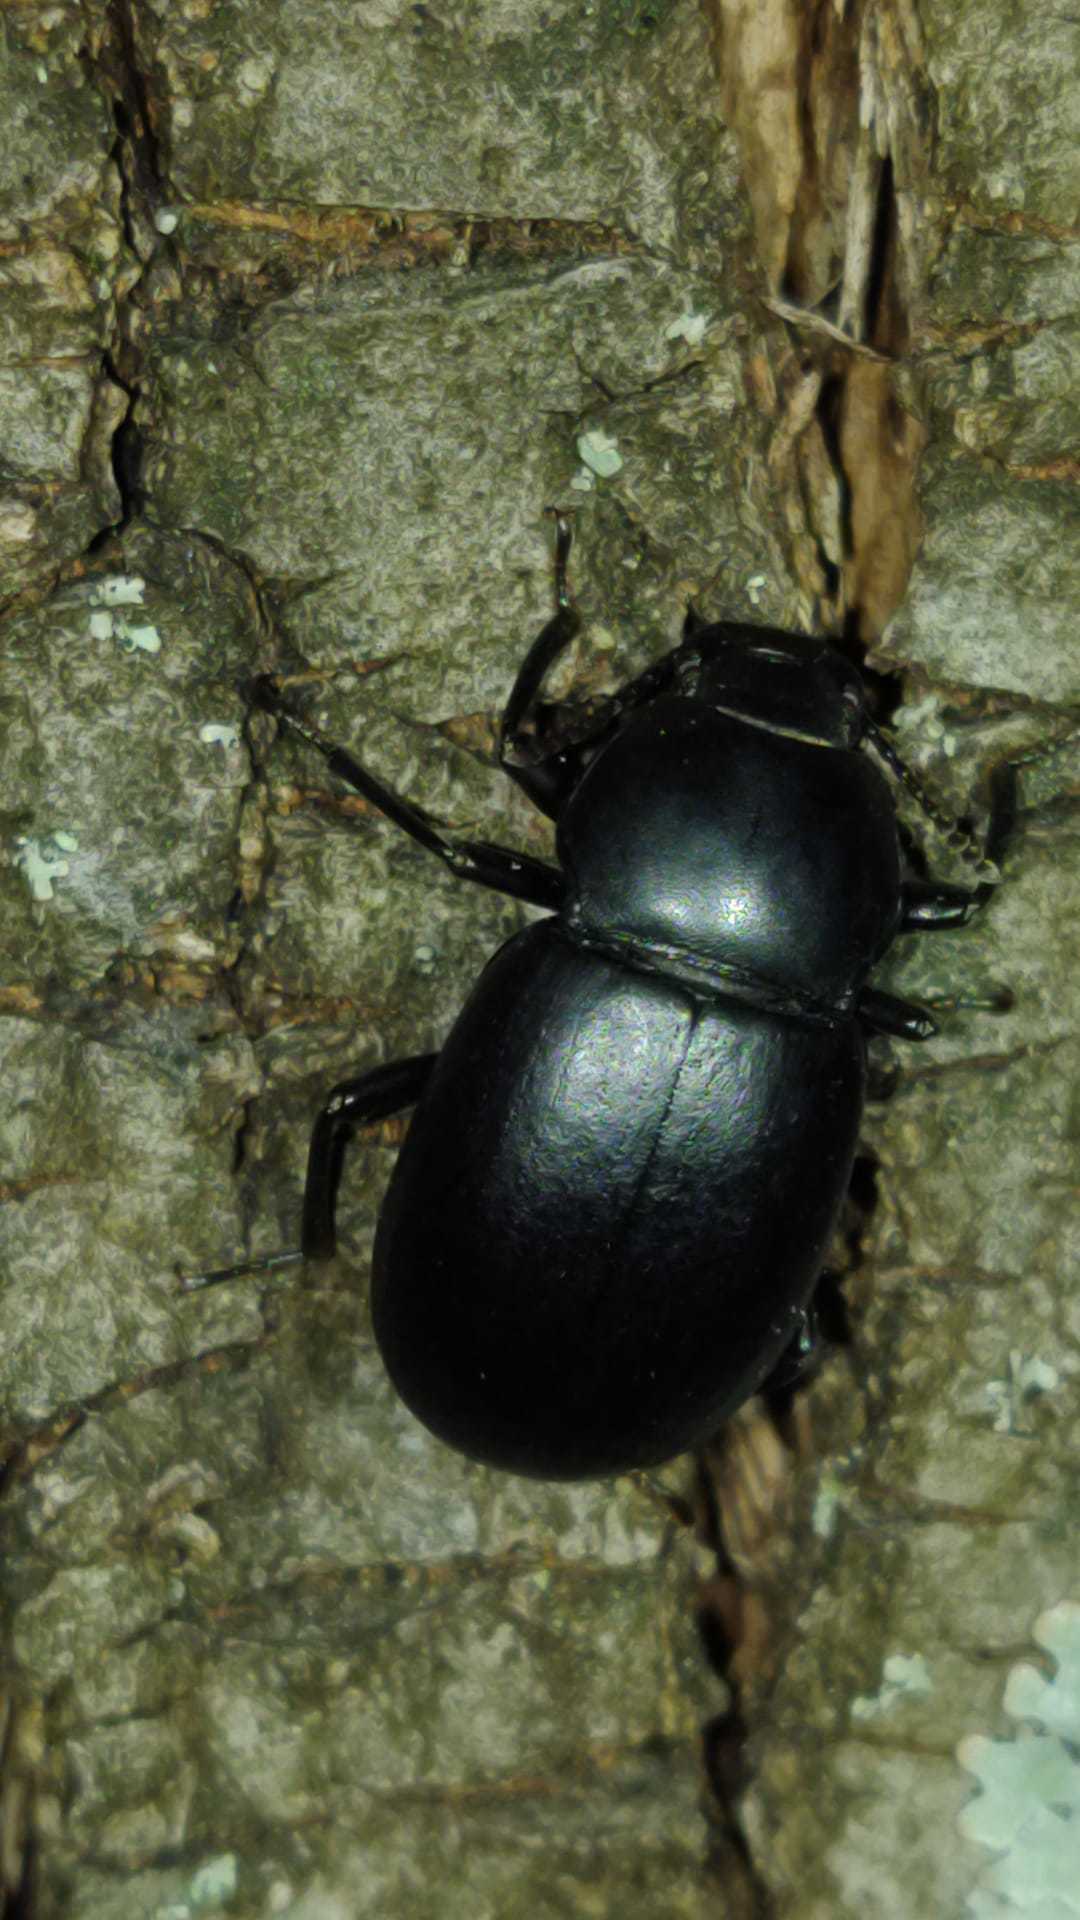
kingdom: Animalia
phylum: Arthropoda
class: Insecta
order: Coleoptera
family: Tenebrionidae
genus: Coelometopus
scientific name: Coelometopus clypeatus
